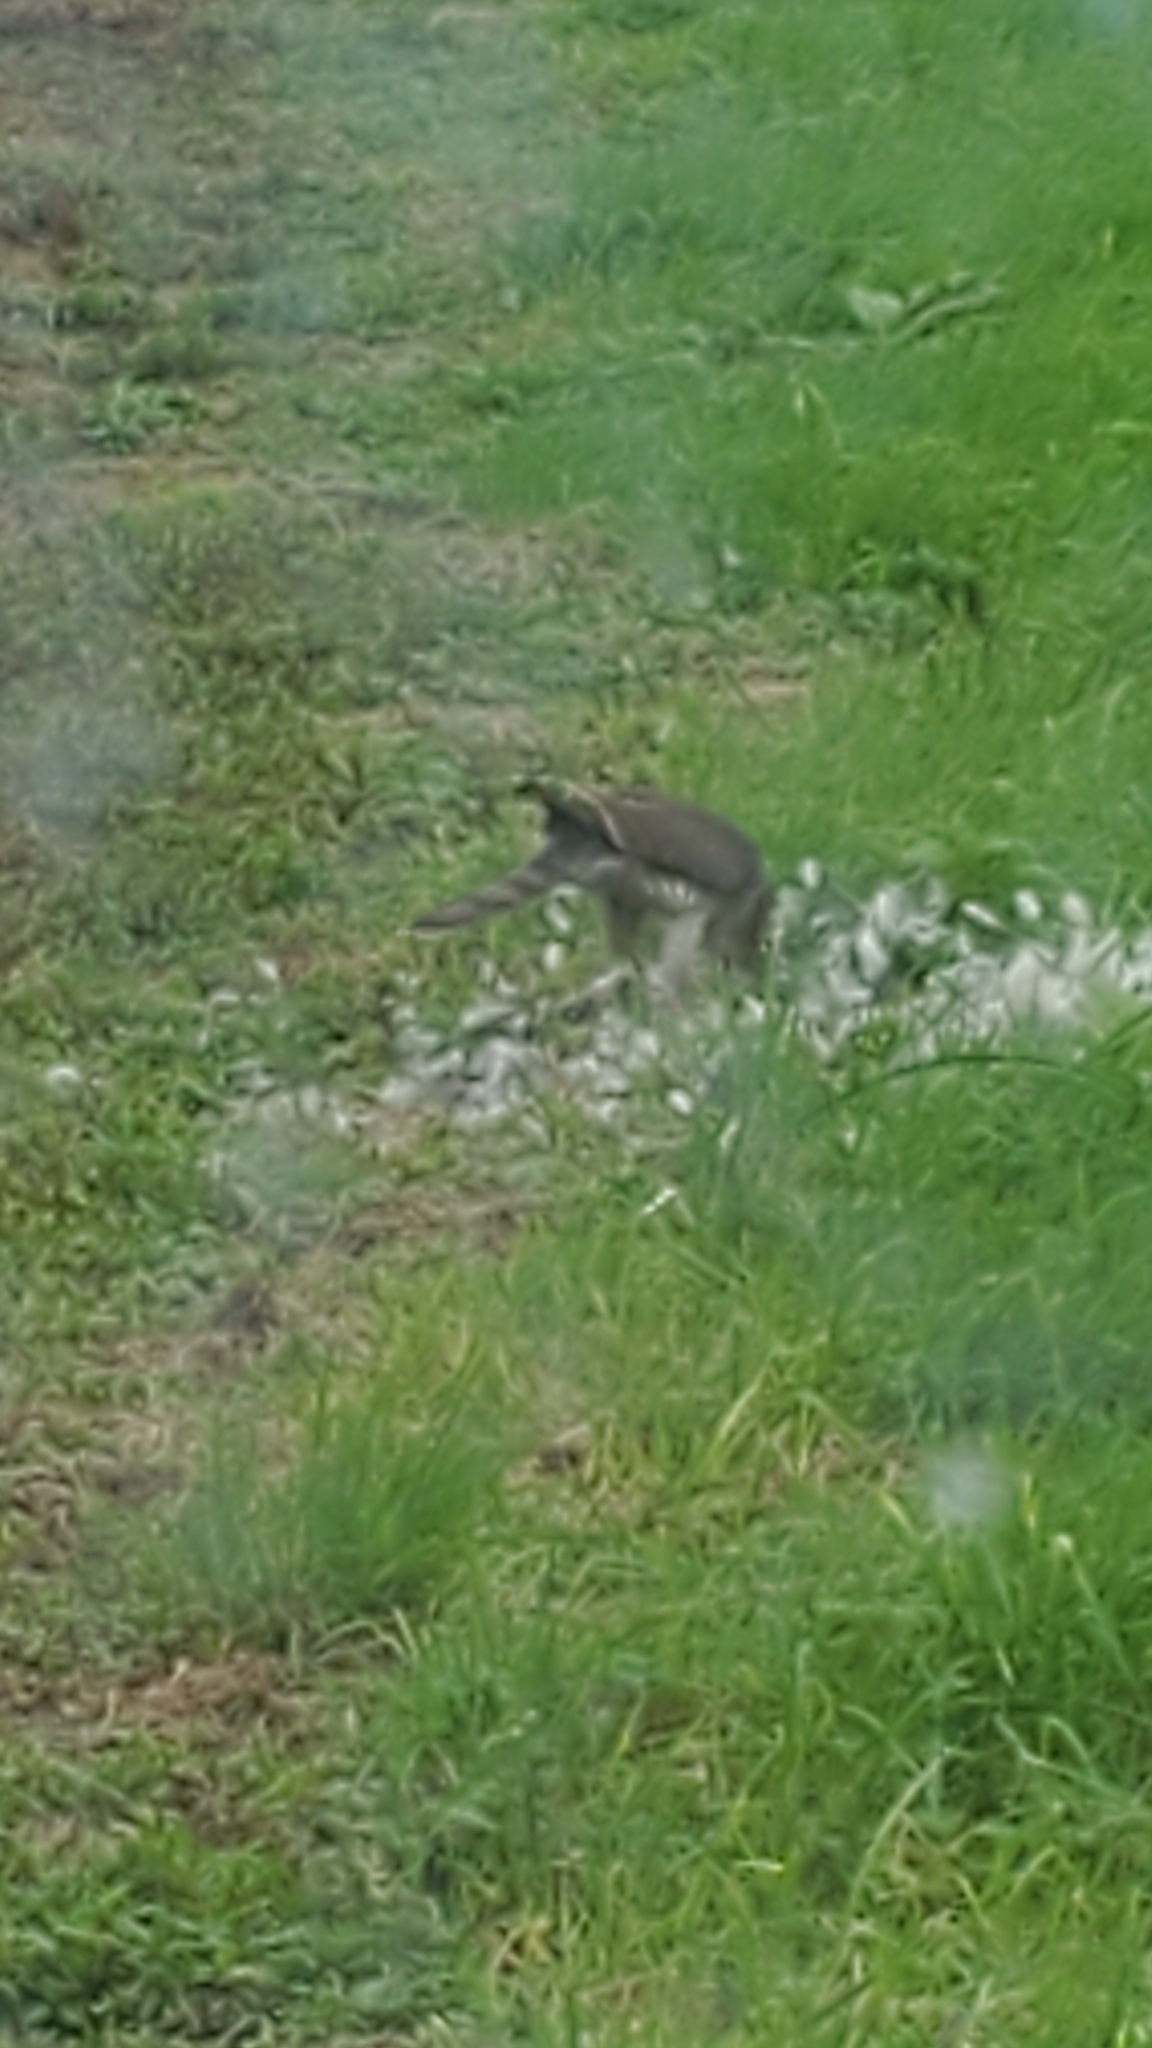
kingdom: Animalia
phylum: Chordata
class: Aves
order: Accipitriformes
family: Accipitridae
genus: Accipiter
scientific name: Accipiter nisus
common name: Eurasian sparrowhawk
